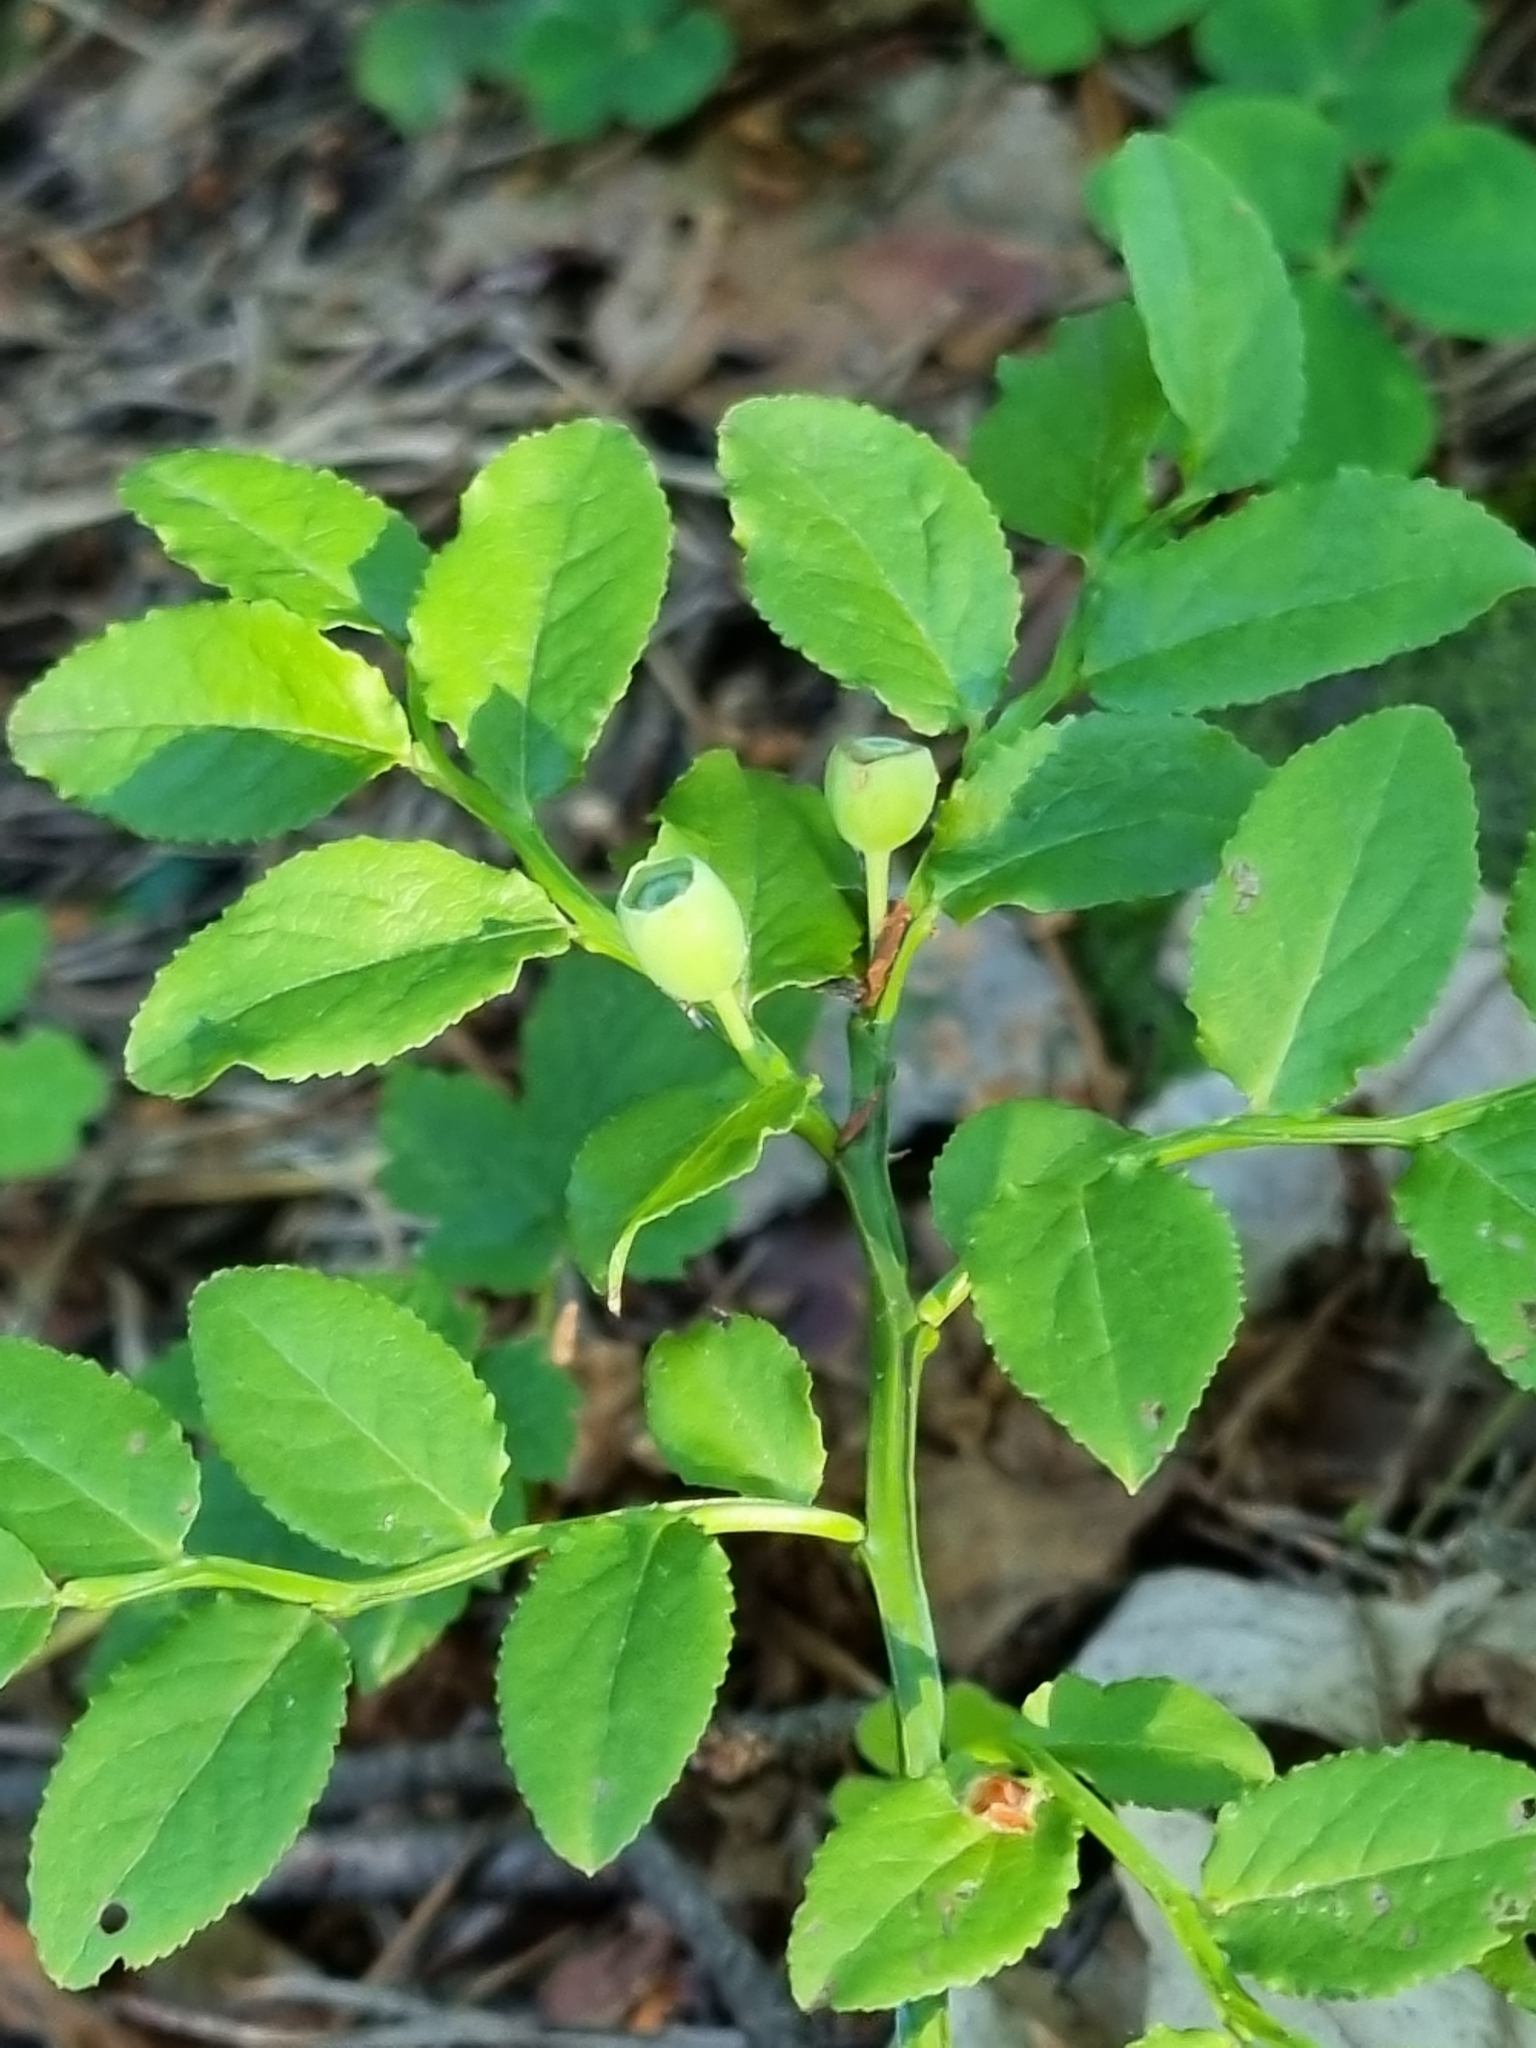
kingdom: Plantae
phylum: Tracheophyta
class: Magnoliopsida
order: Ericales
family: Ericaceae
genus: Vaccinium
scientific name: Vaccinium myrtillus
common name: Bilberry
